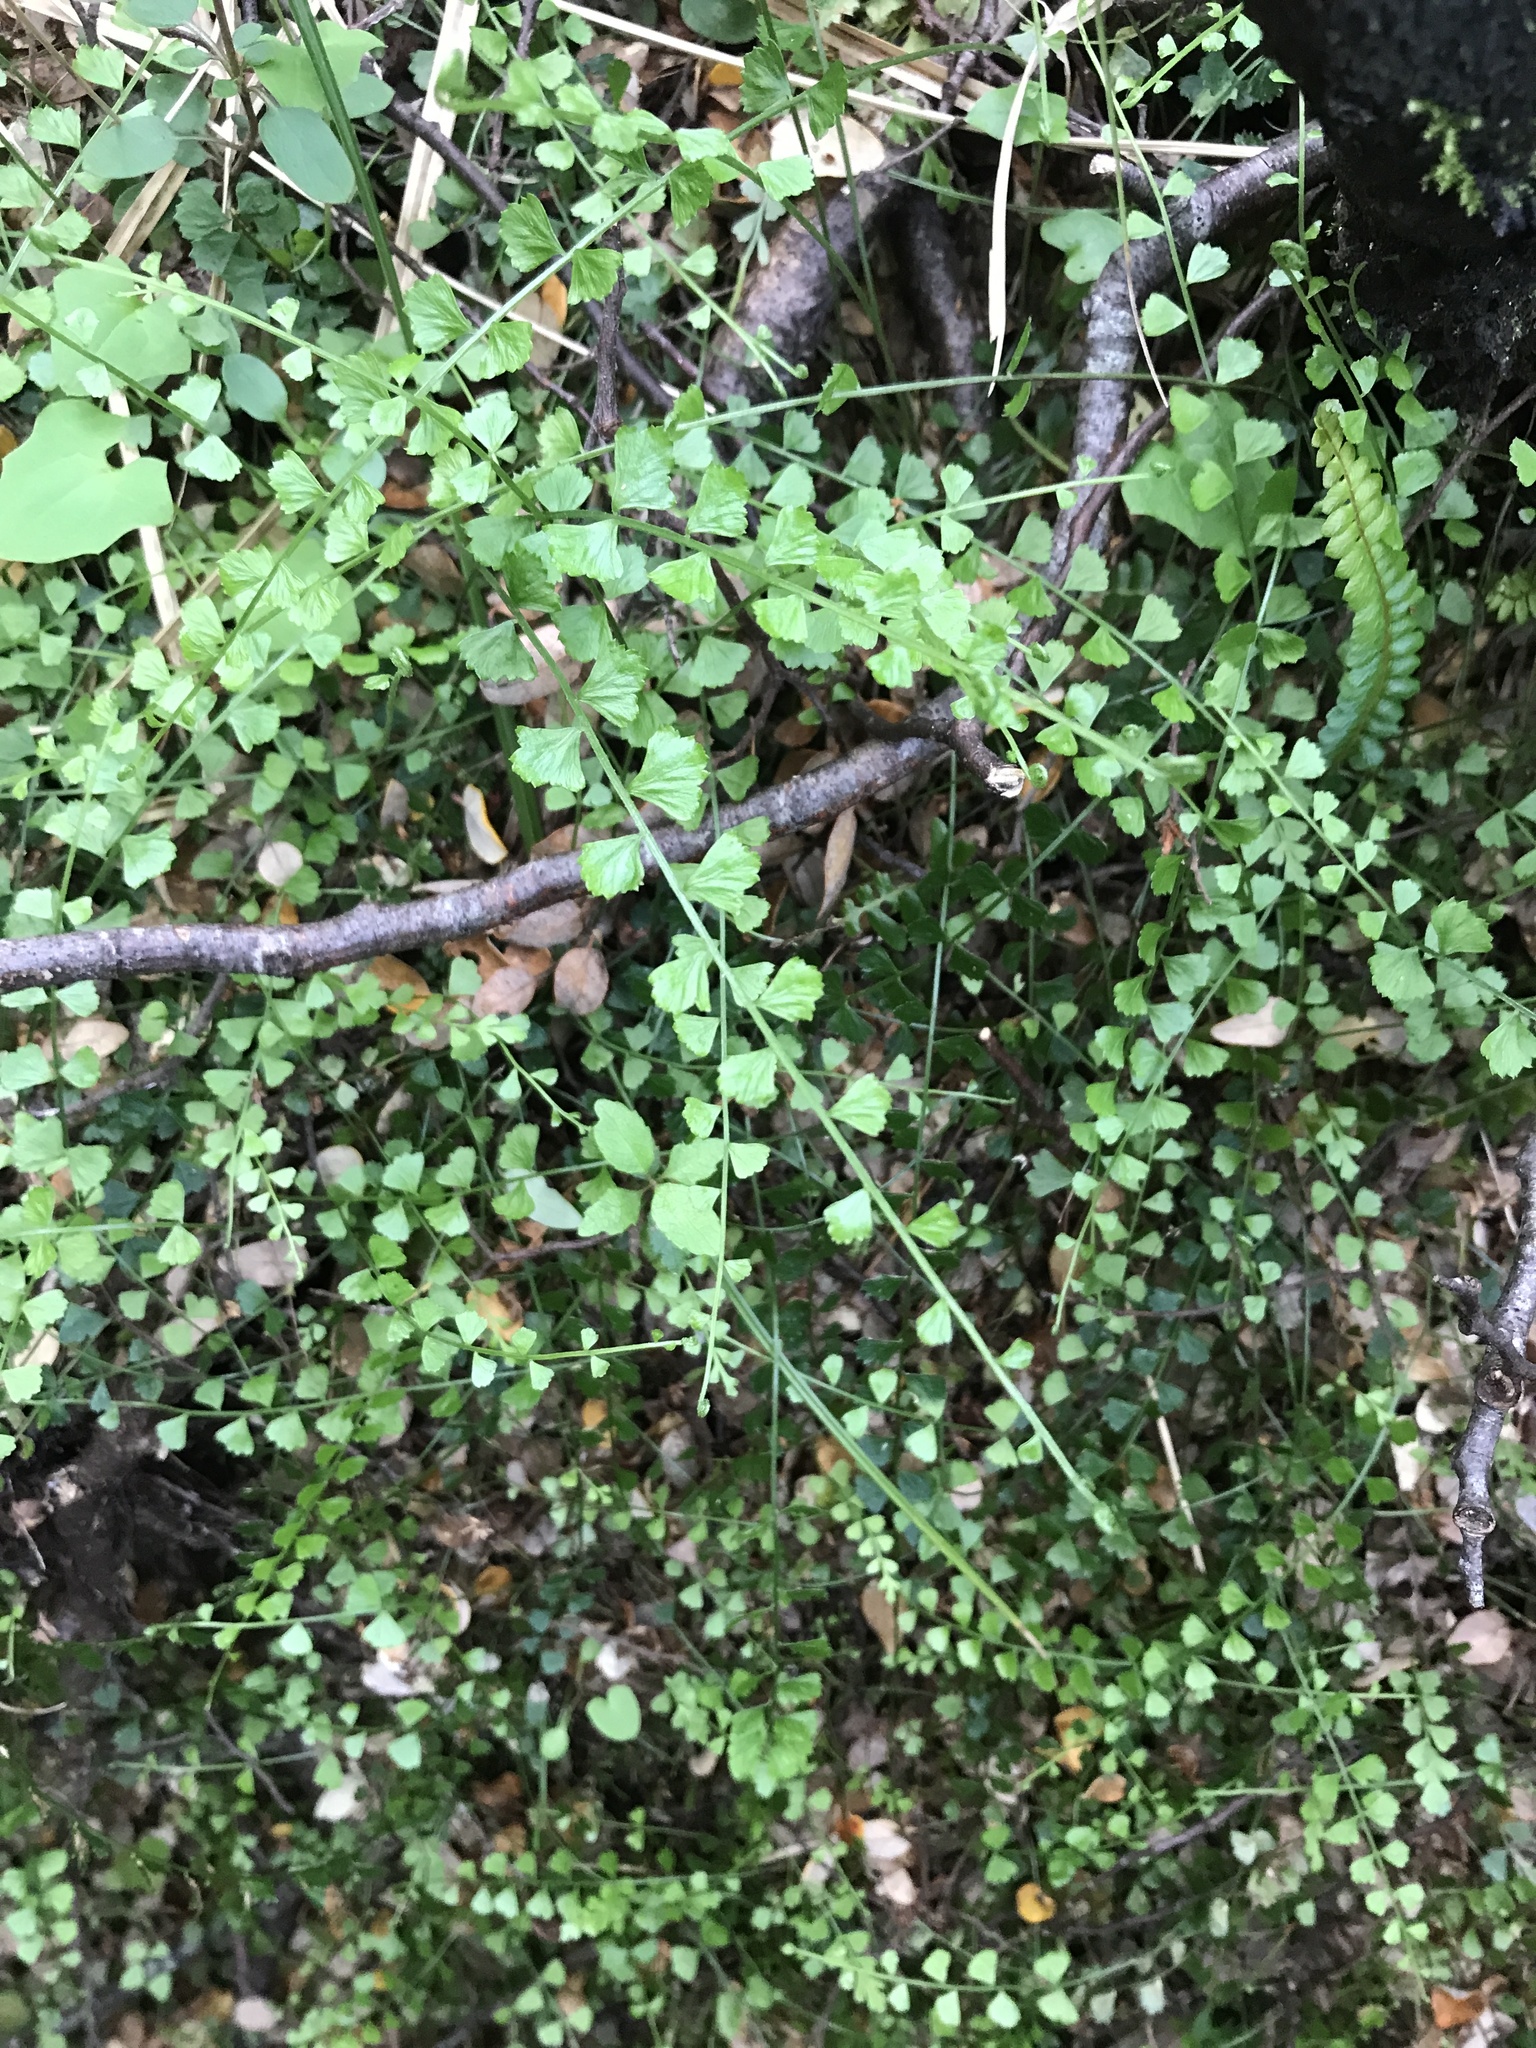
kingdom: Plantae
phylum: Tracheophyta
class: Polypodiopsida
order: Polypodiales
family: Aspleniaceae
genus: Asplenium
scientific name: Asplenium flabellifolium
